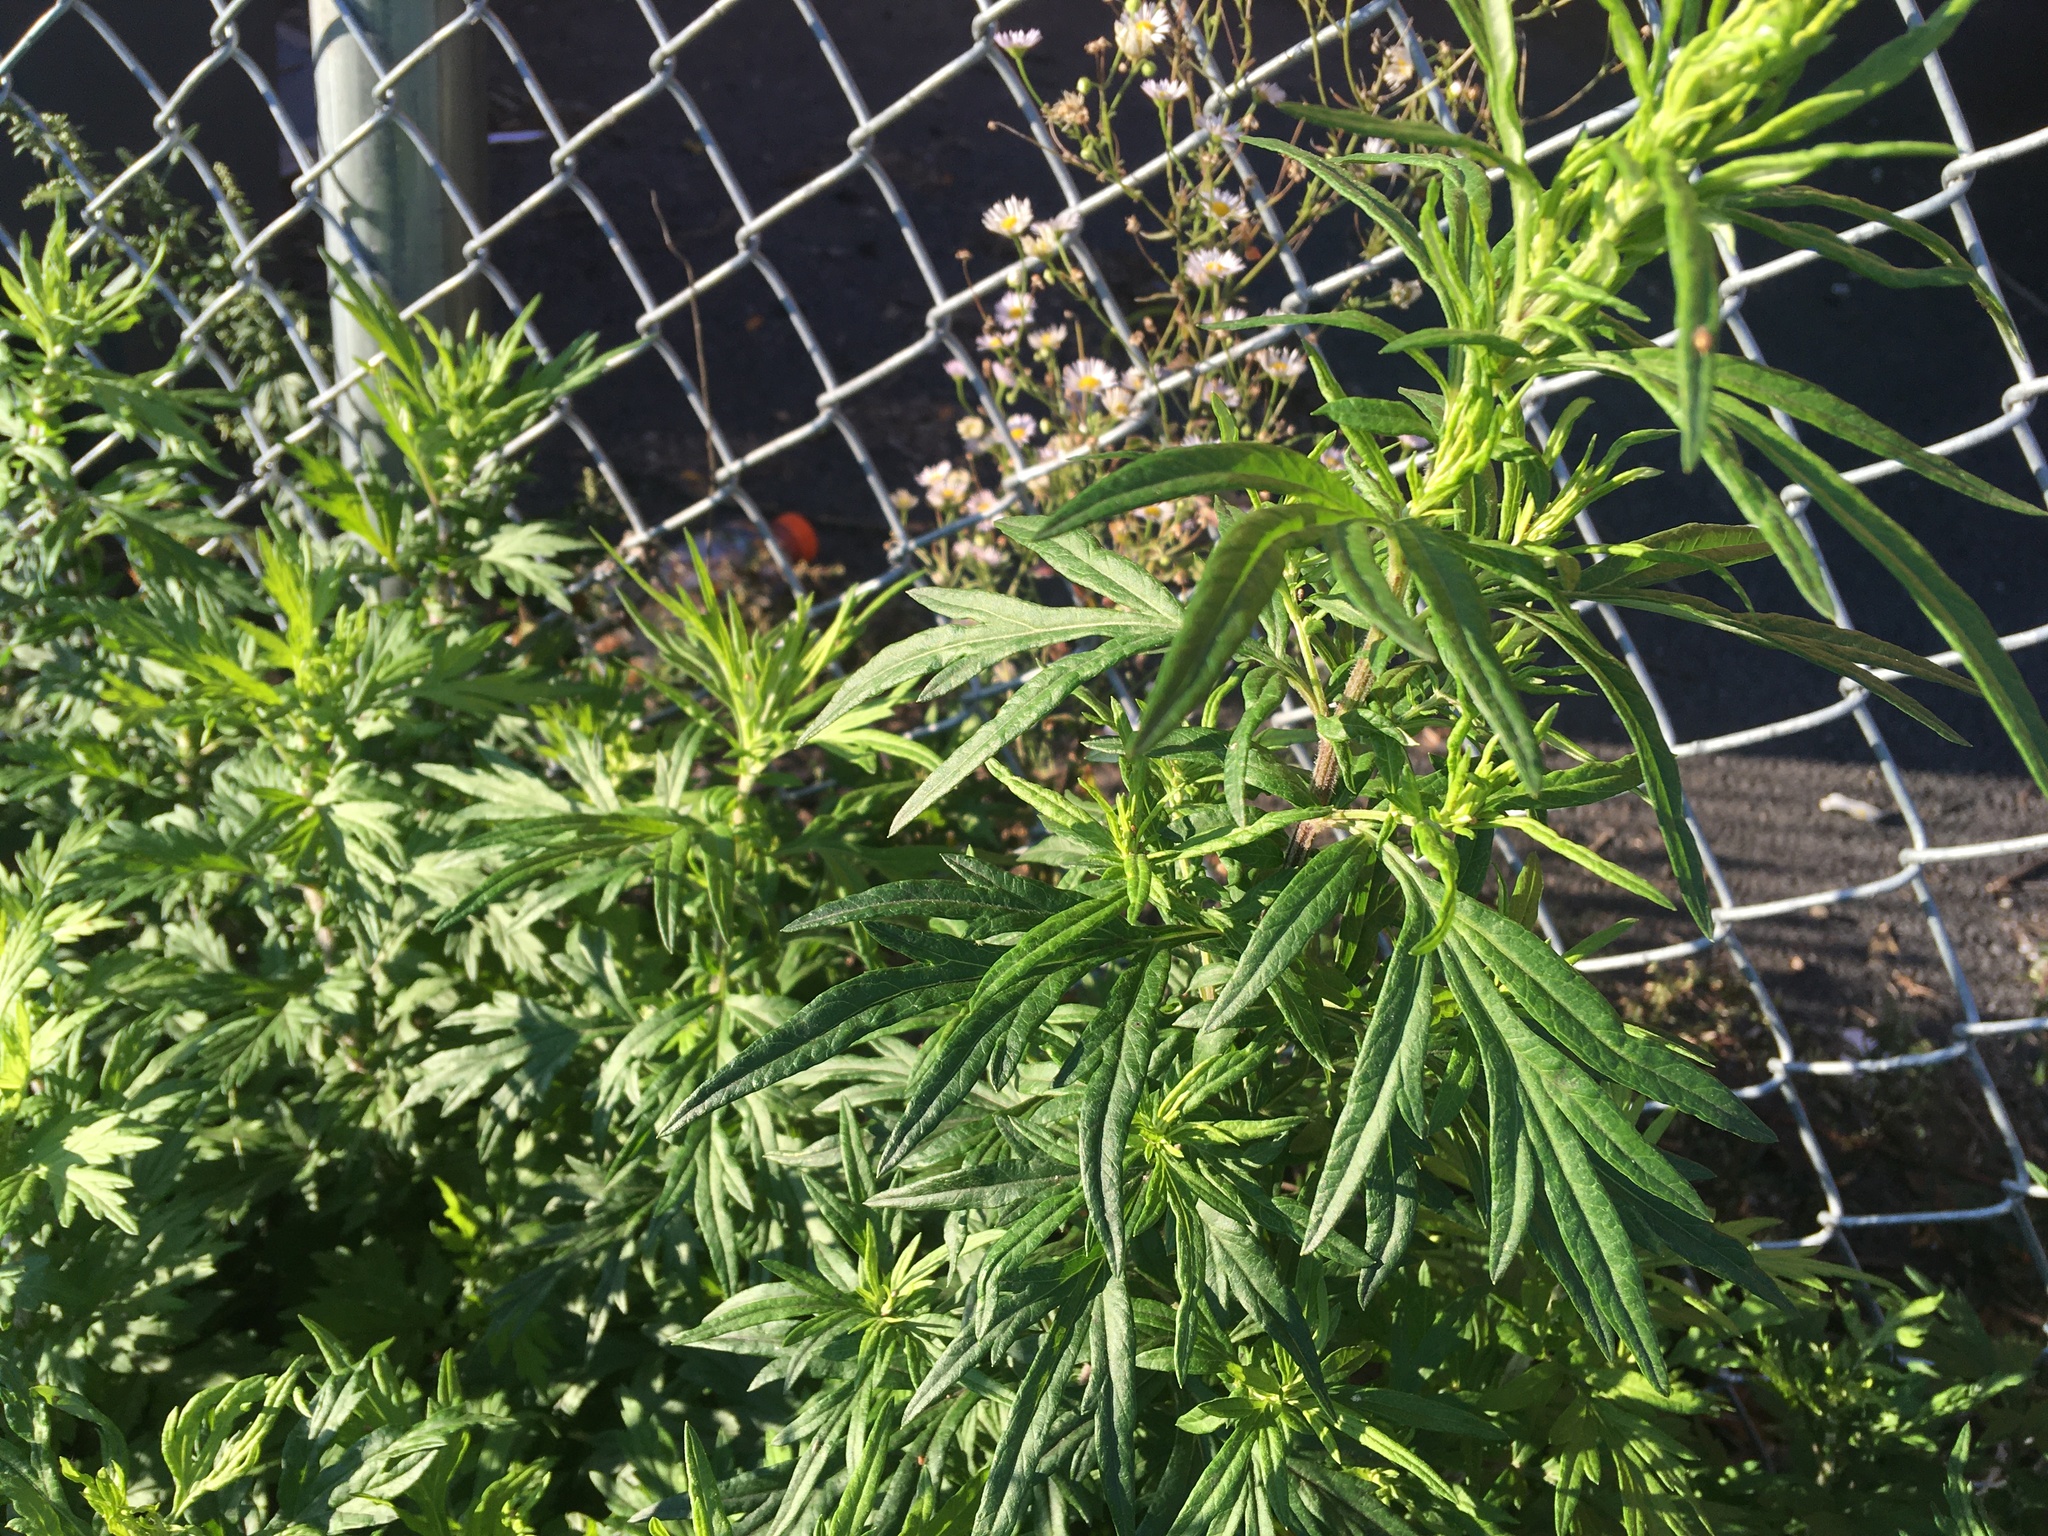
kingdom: Plantae
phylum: Tracheophyta
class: Magnoliopsida
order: Asterales
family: Asteraceae
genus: Artemisia
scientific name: Artemisia vulgaris
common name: Mugwort
